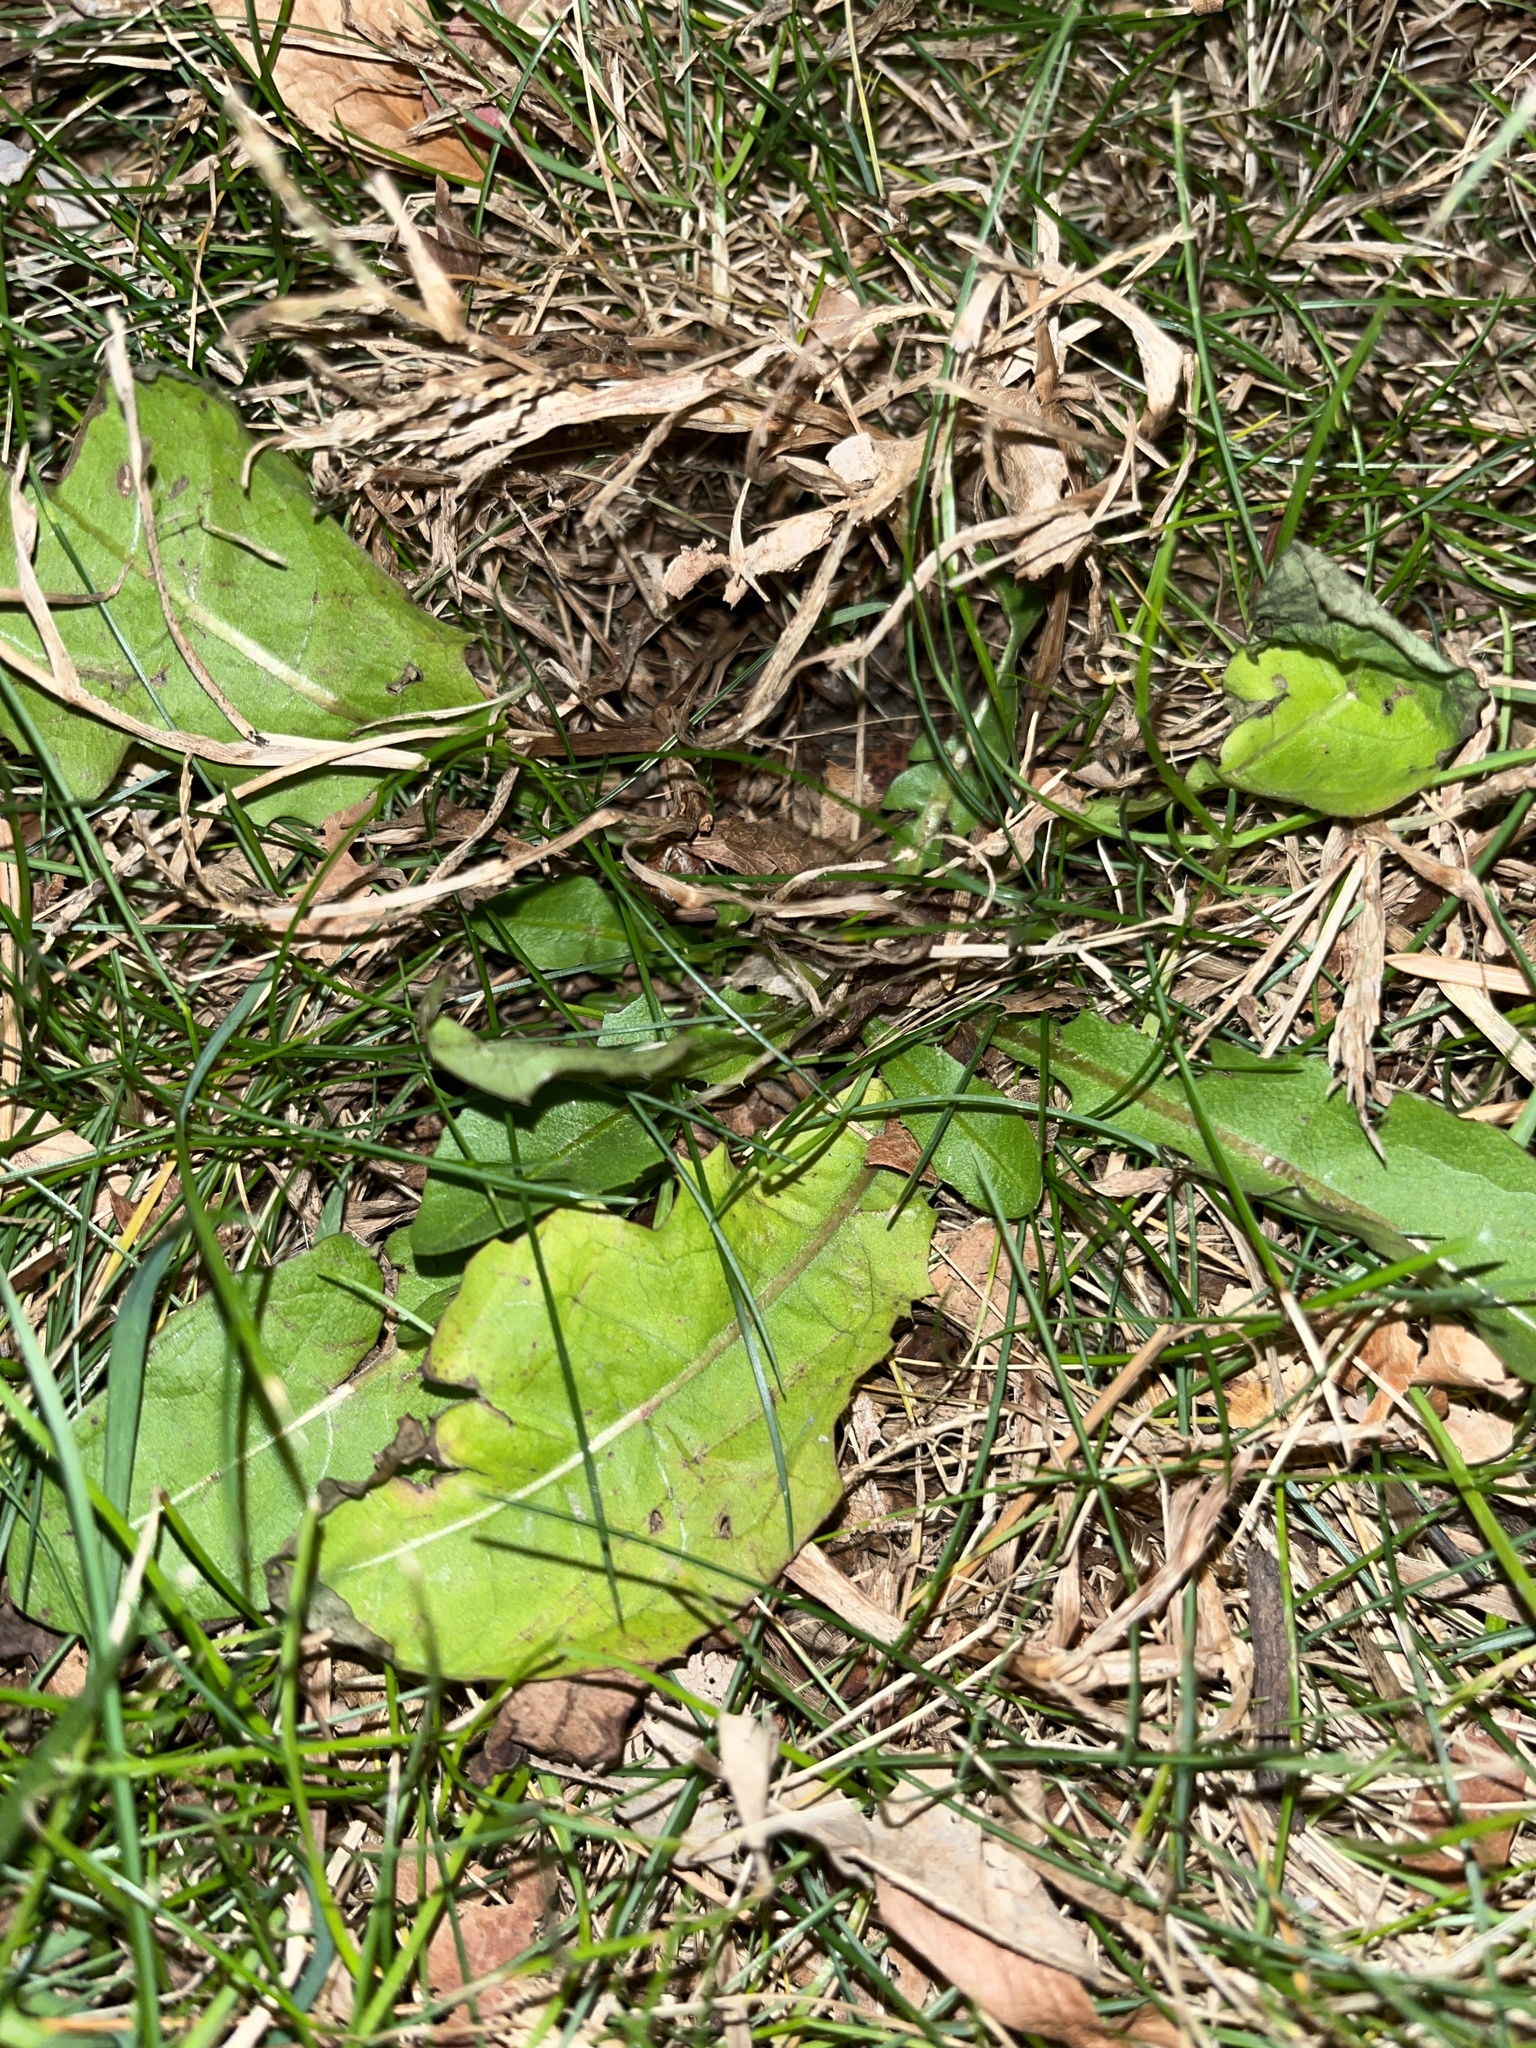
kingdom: Plantae
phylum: Tracheophyta
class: Magnoliopsida
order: Asterales
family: Asteraceae
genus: Taraxacum
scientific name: Taraxacum officinale
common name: Common dandelion
